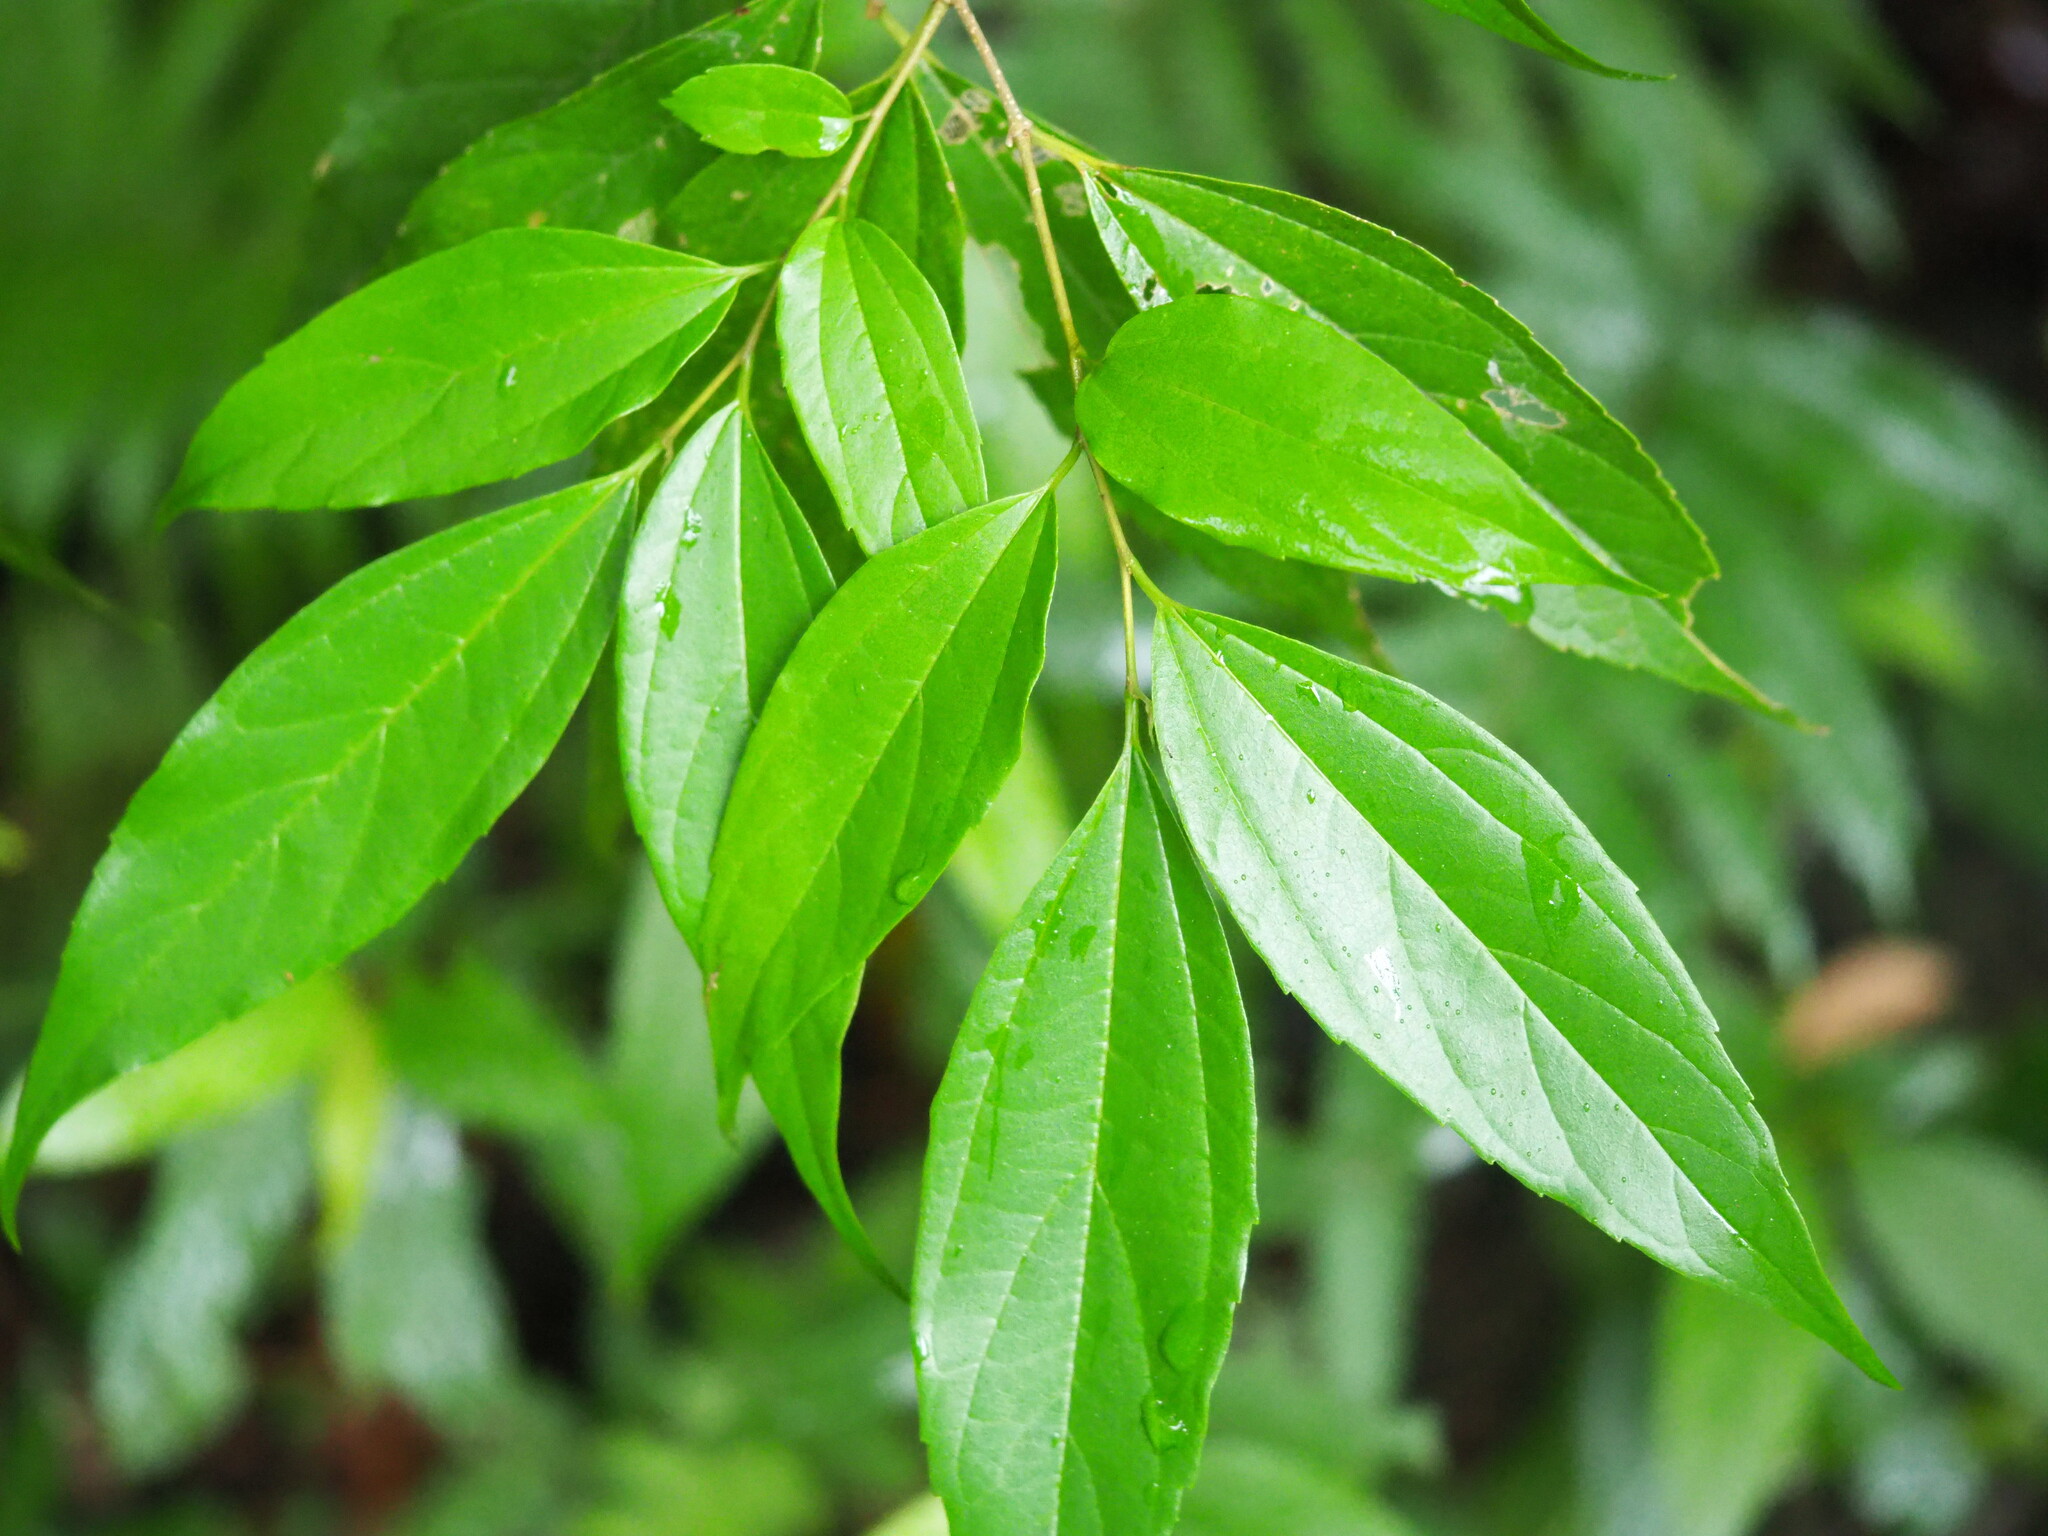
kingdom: Plantae
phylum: Tracheophyta
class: Magnoliopsida
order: Rosales
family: Cannabaceae
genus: Celtis
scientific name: Celtis tetrandra
